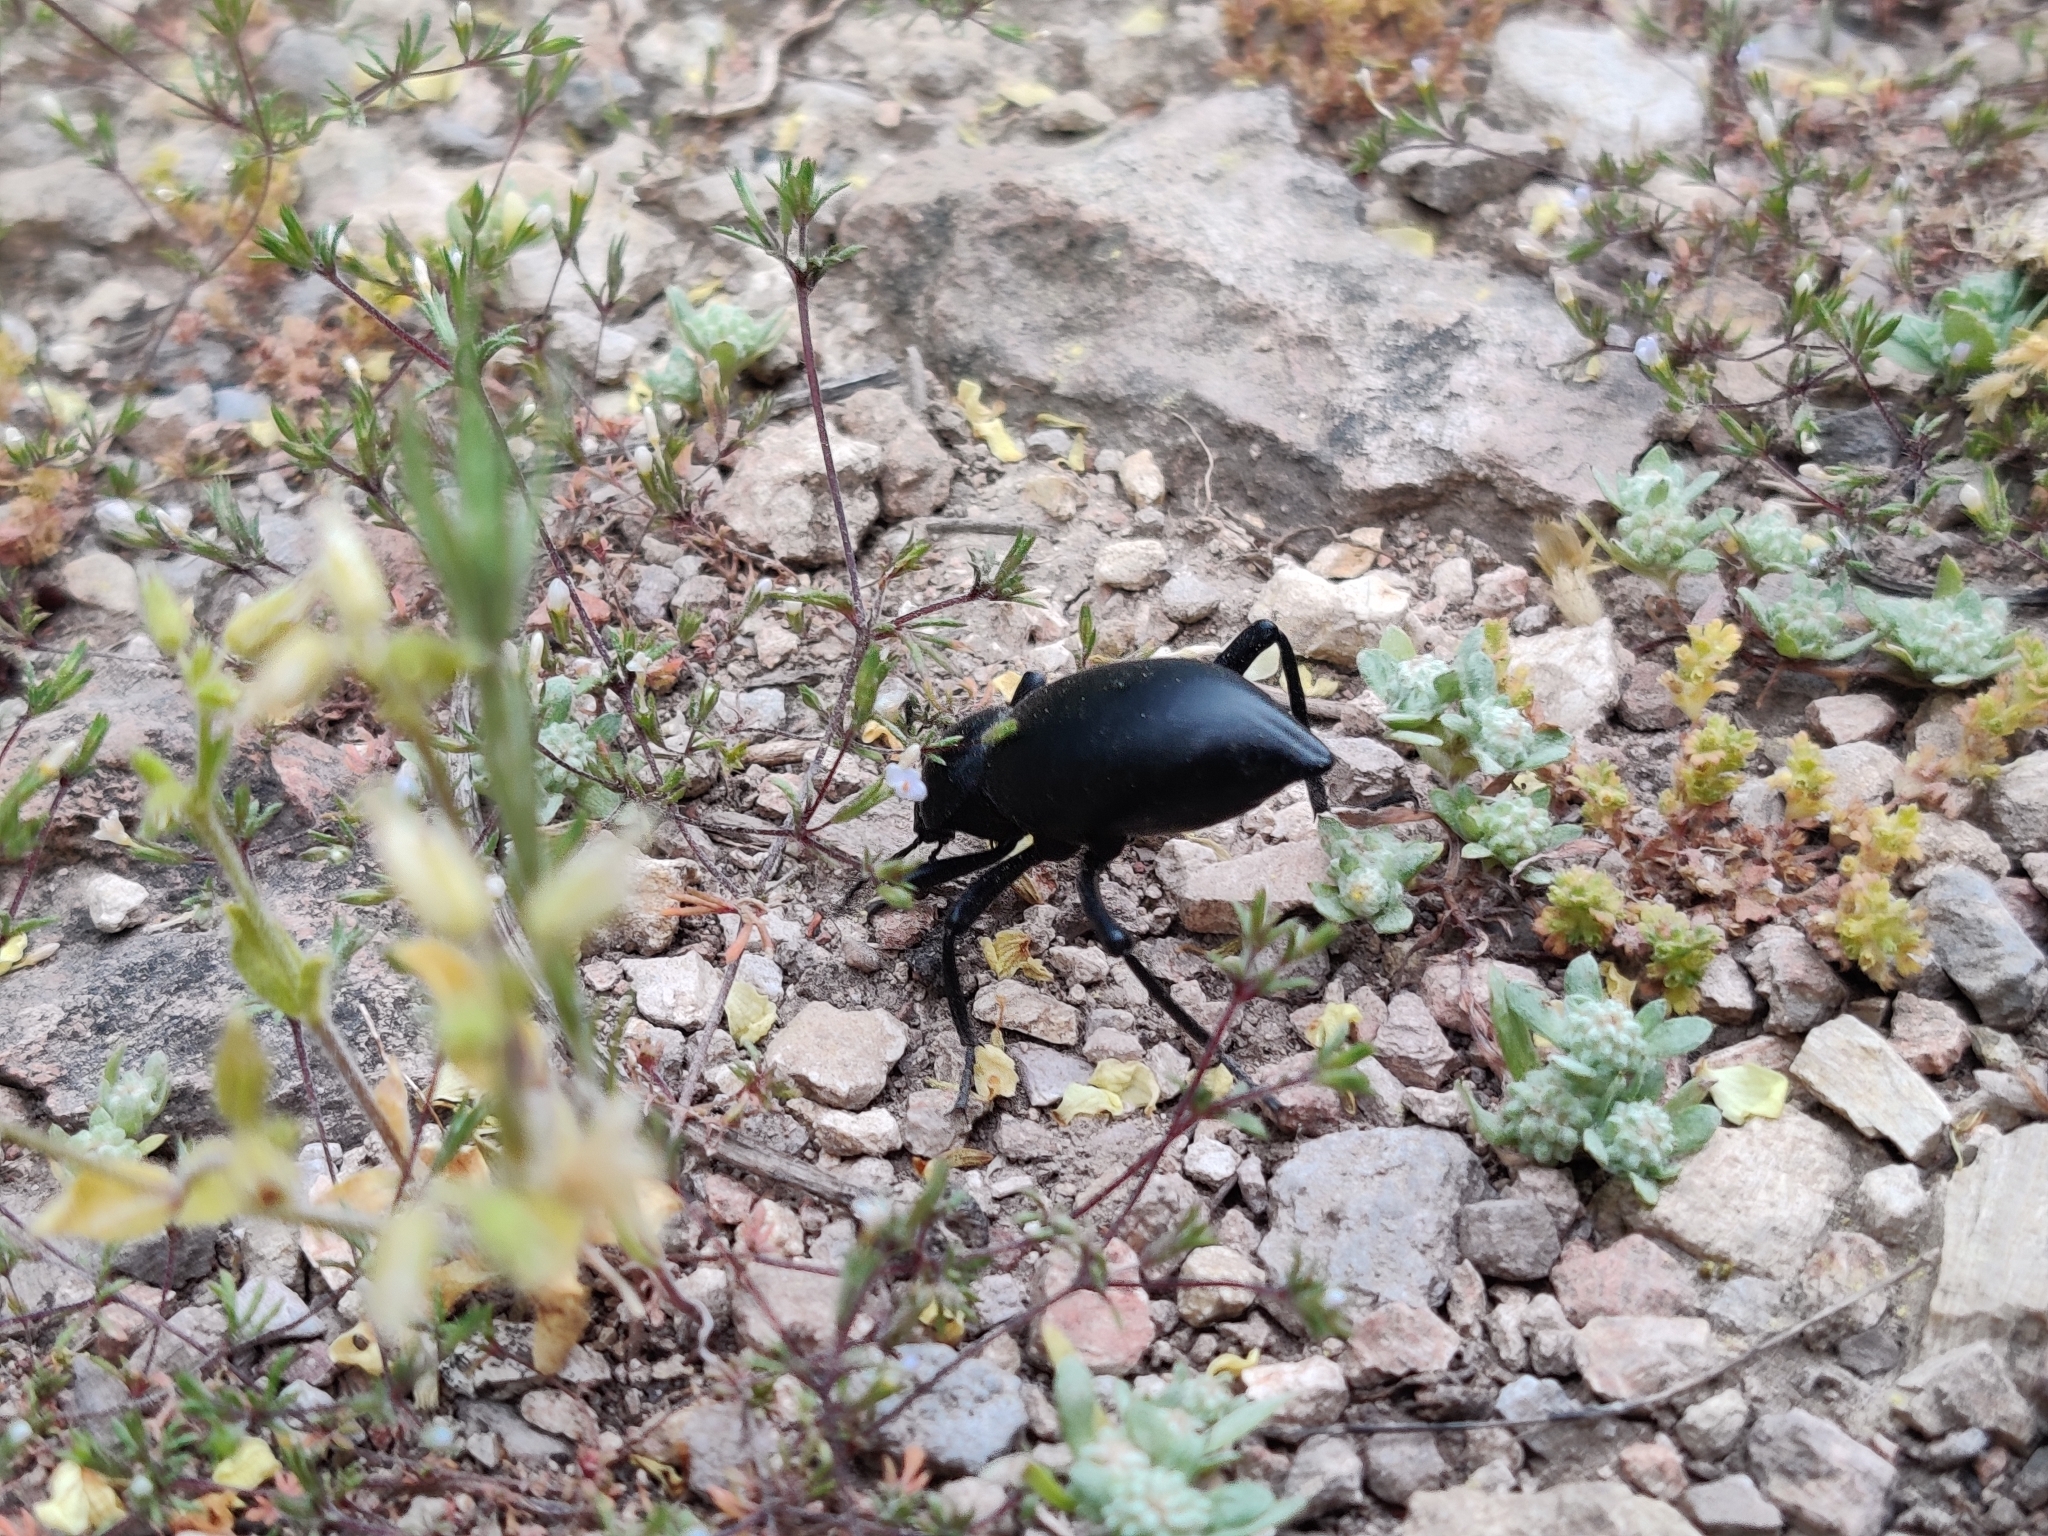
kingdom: Animalia
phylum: Arthropoda
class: Insecta
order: Coleoptera
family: Tenebrionidae
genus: Eleodes
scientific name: Eleodes acuticauda
